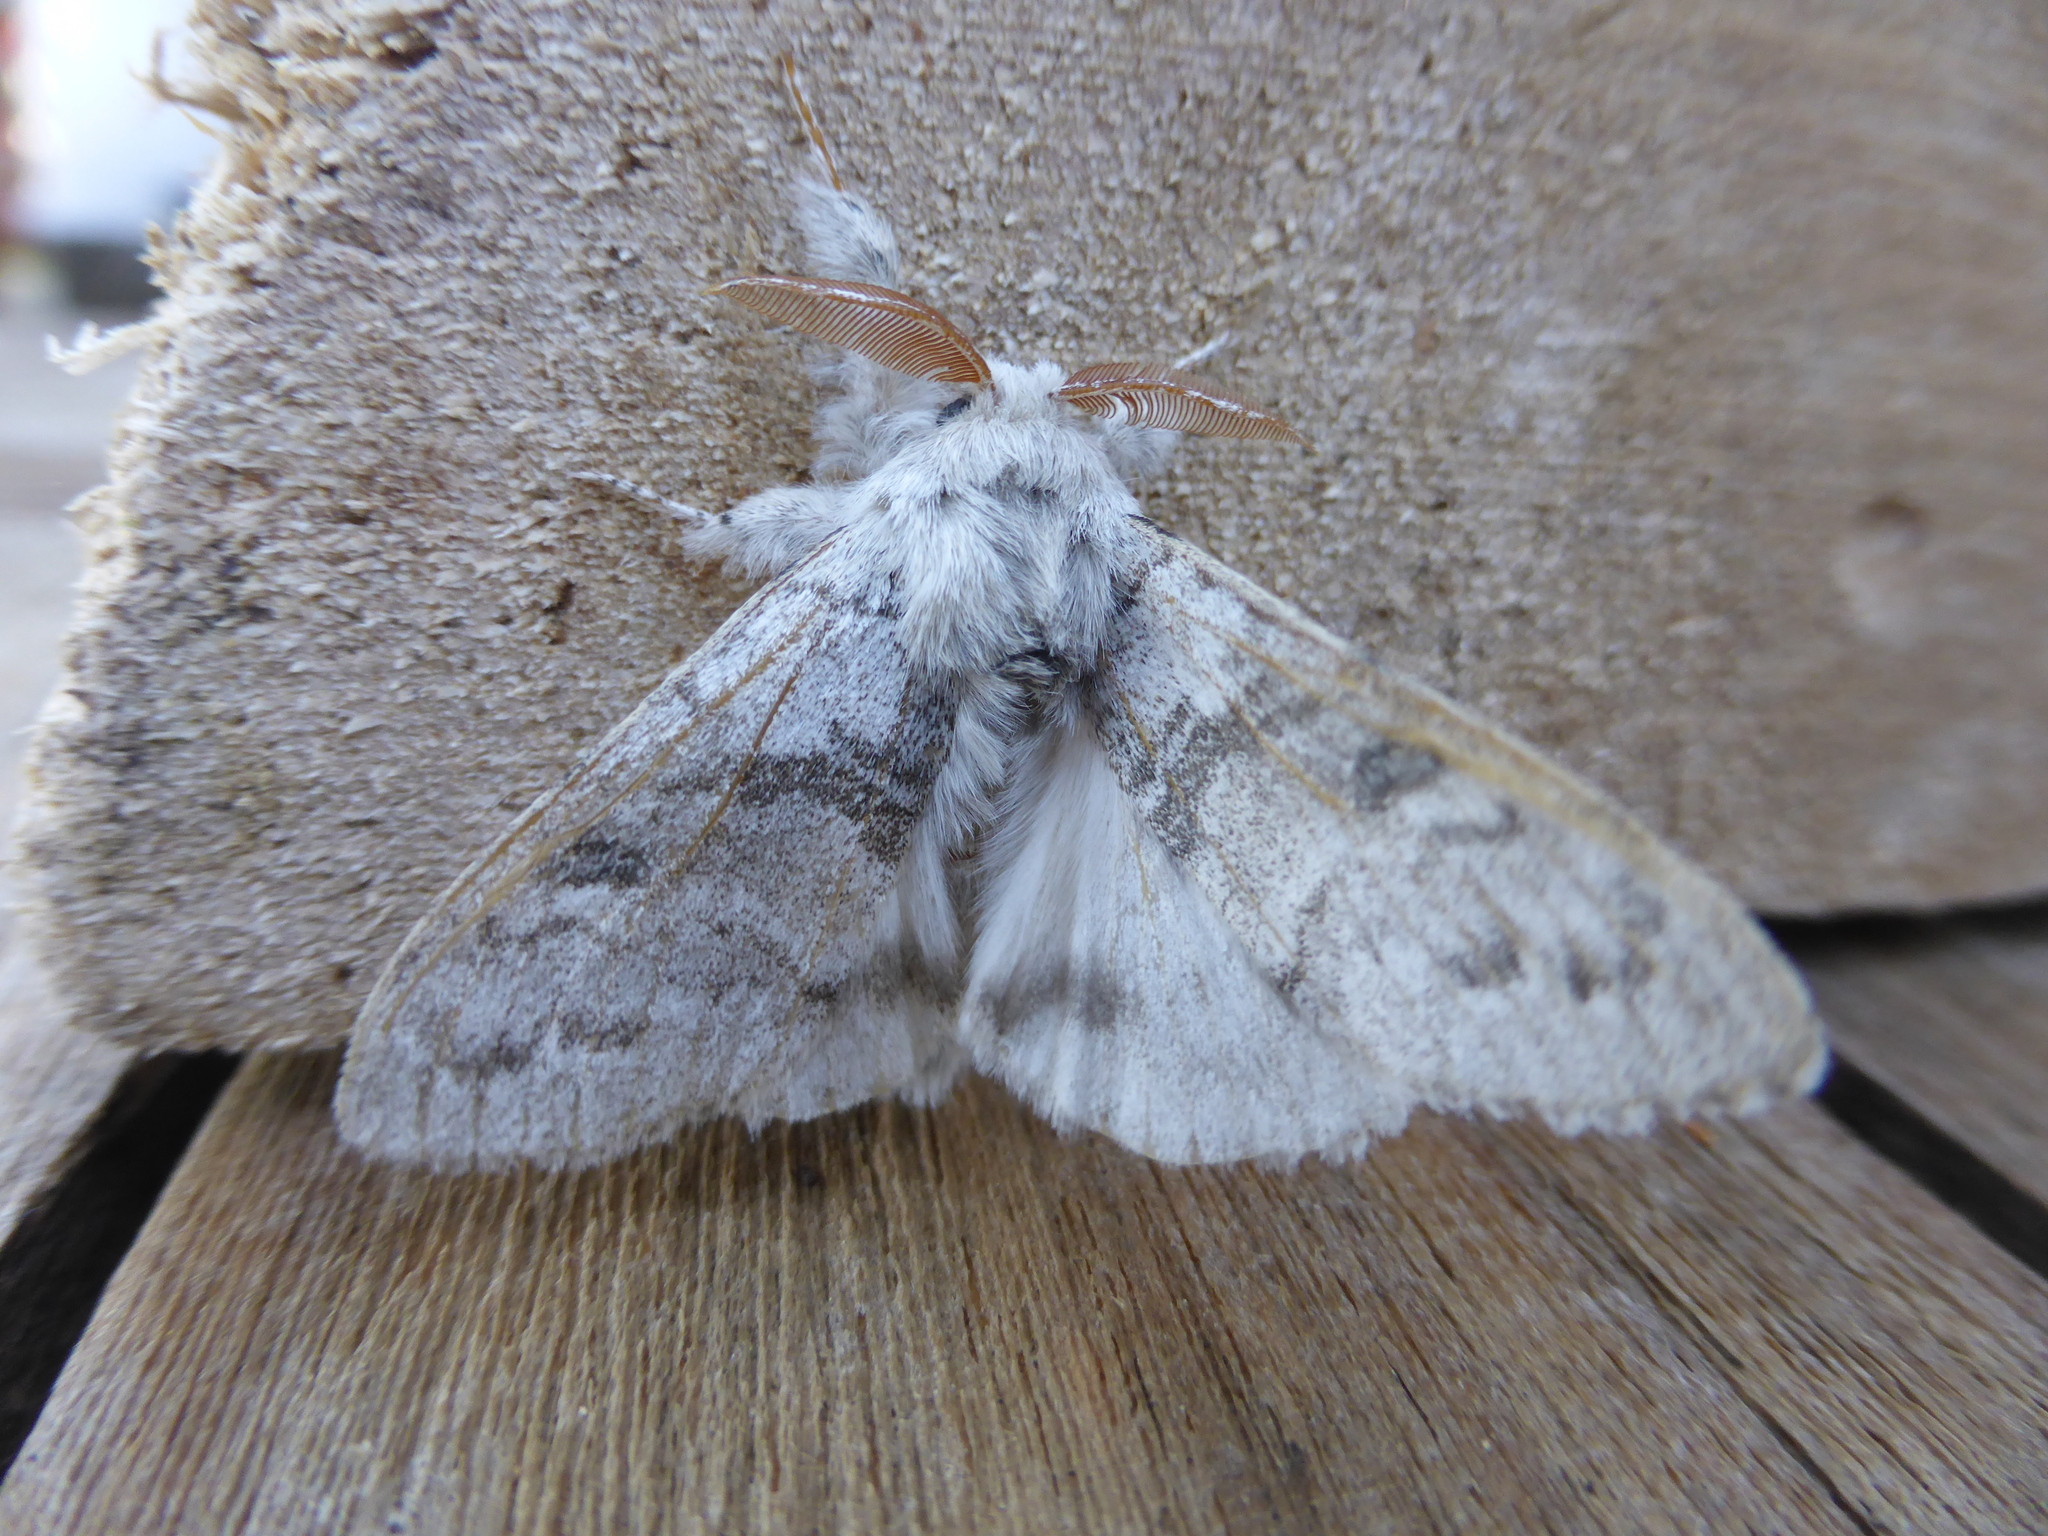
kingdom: Animalia
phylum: Arthropoda
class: Insecta
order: Lepidoptera
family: Erebidae
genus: Calliteara
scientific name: Calliteara pudibunda
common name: Pale tussock
